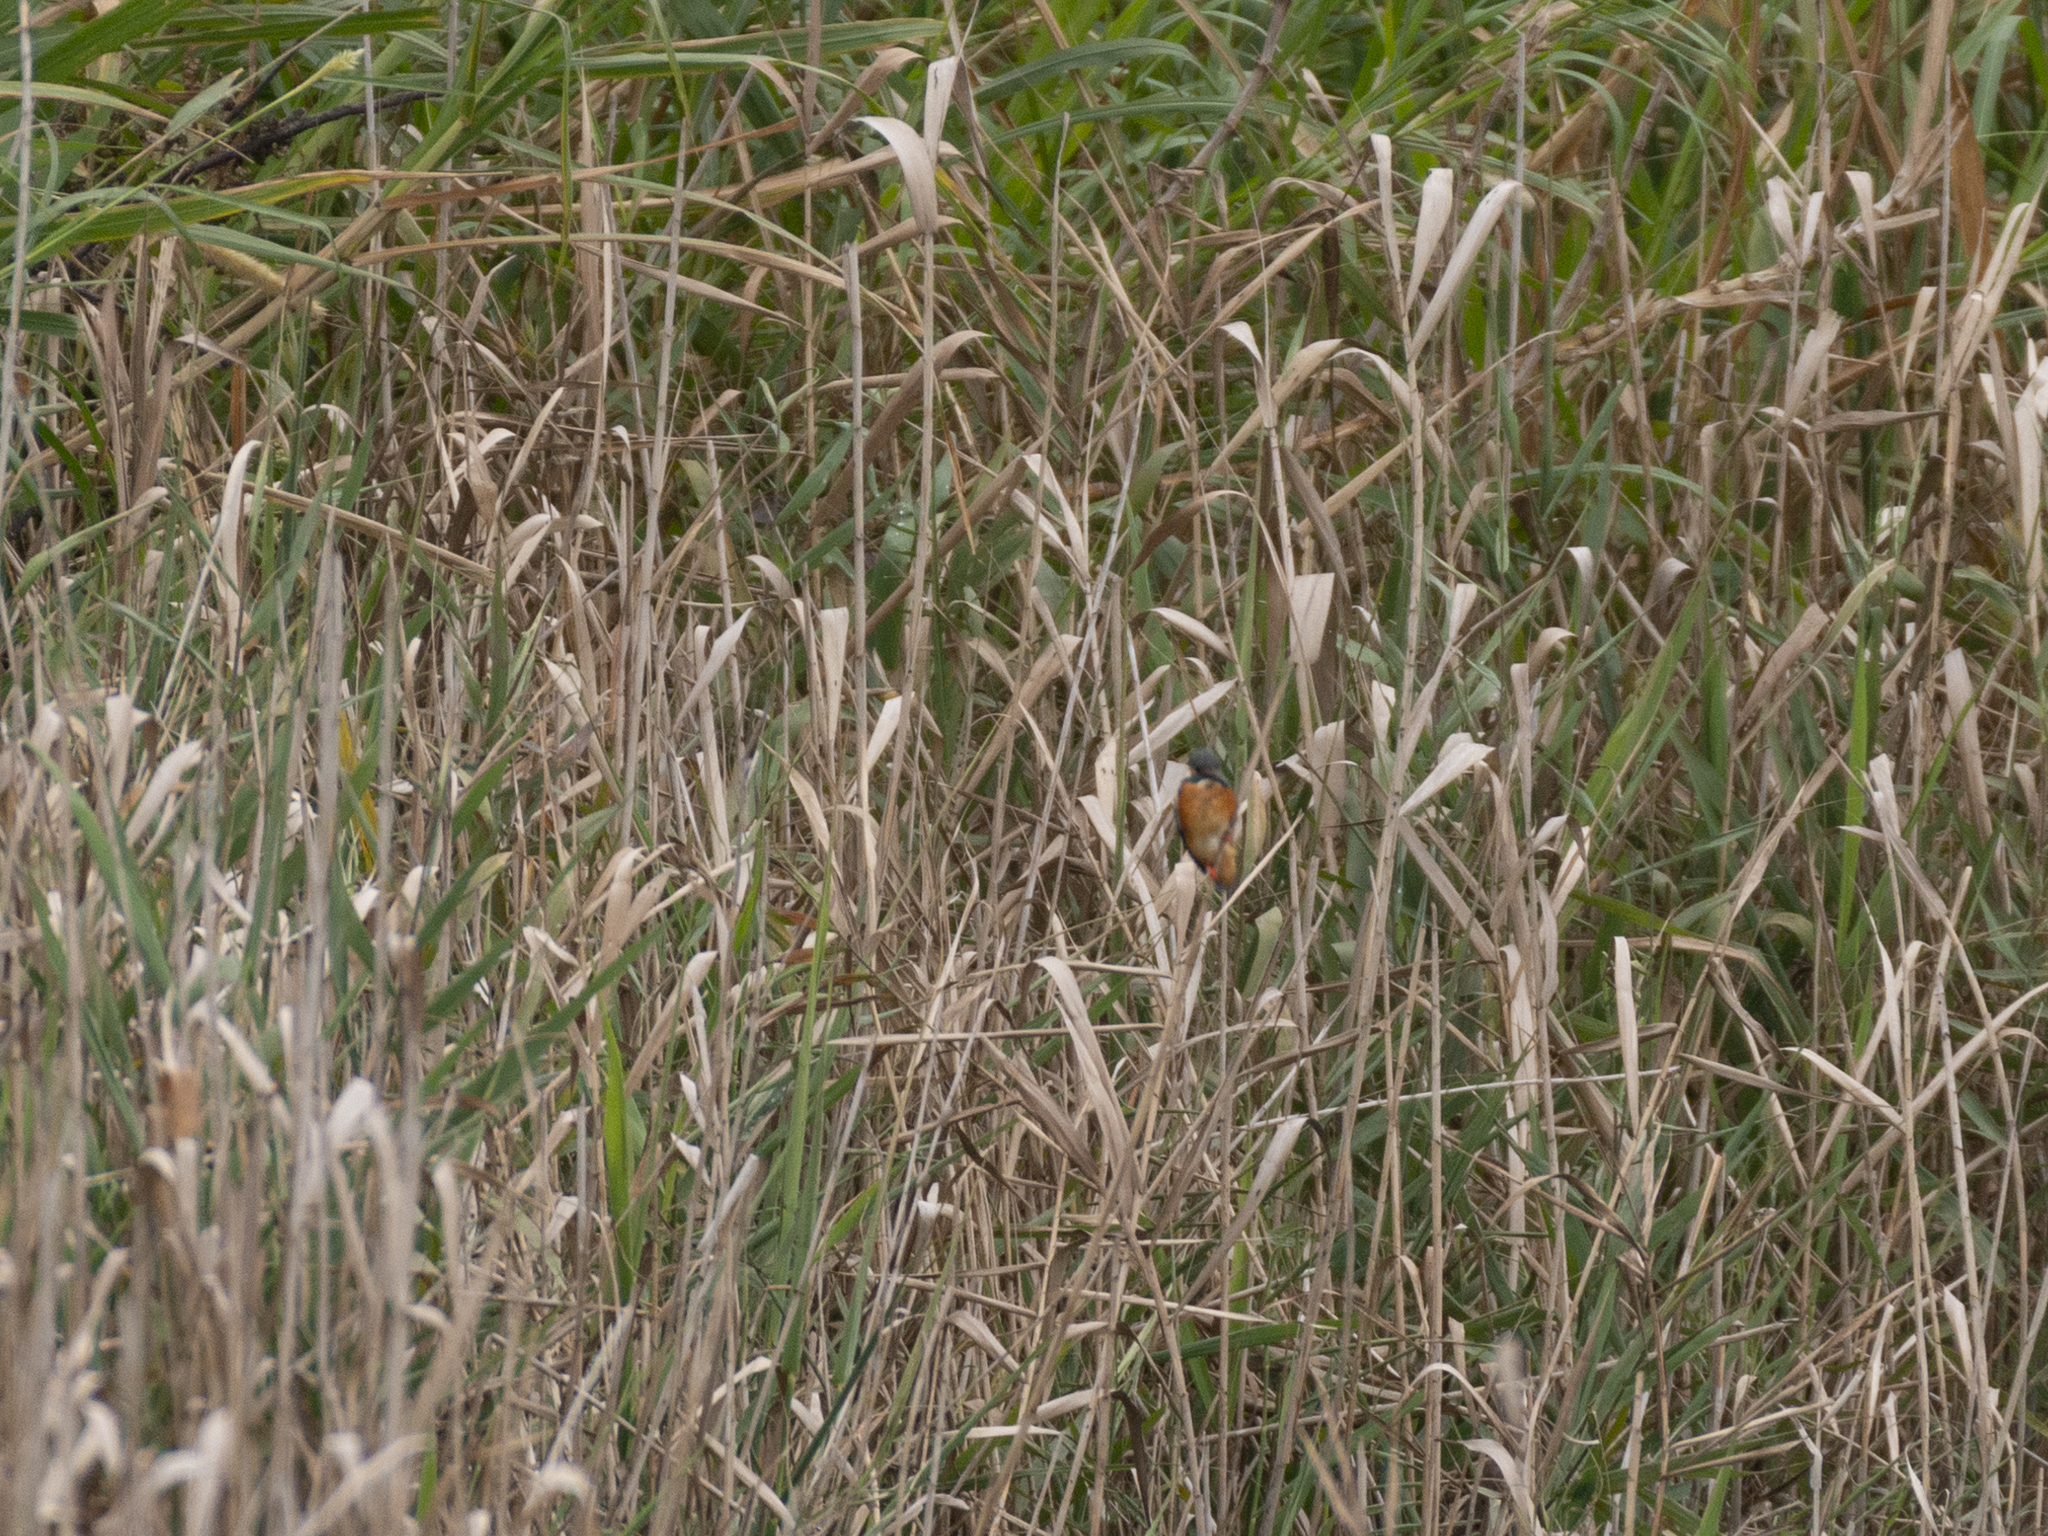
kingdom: Animalia
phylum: Chordata
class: Aves
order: Coraciiformes
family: Alcedinidae
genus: Alcedo
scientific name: Alcedo atthis
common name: Common kingfisher
